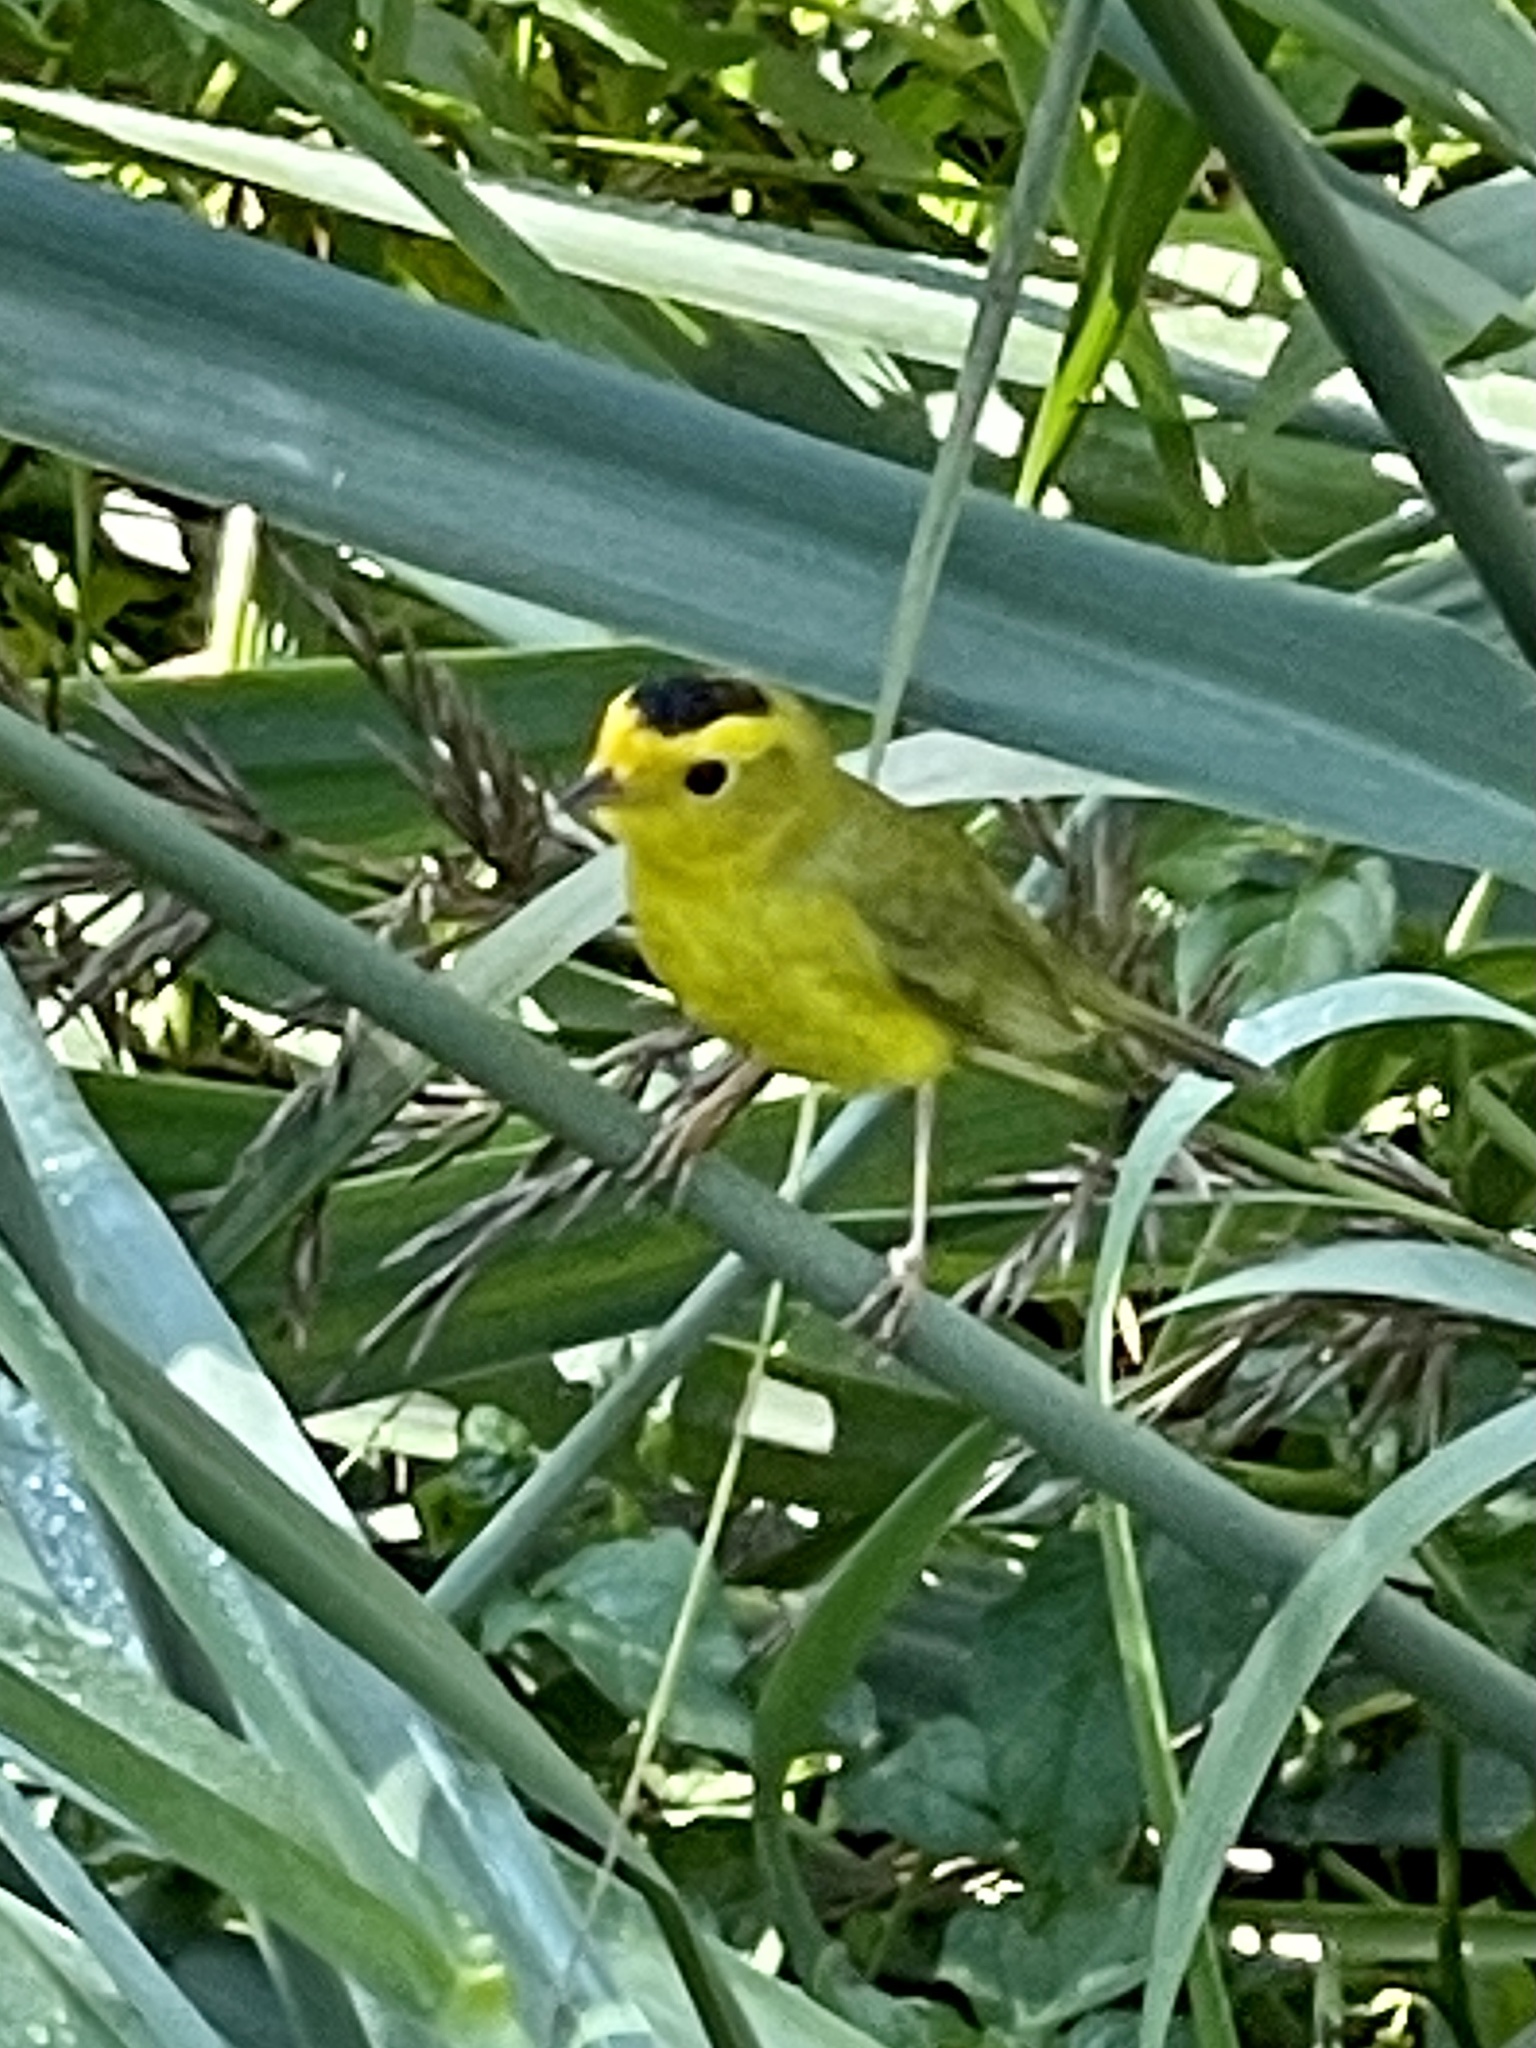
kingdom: Animalia
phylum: Chordata
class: Aves
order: Passeriformes
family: Parulidae
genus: Cardellina
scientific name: Cardellina pusilla
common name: Wilson's warbler
